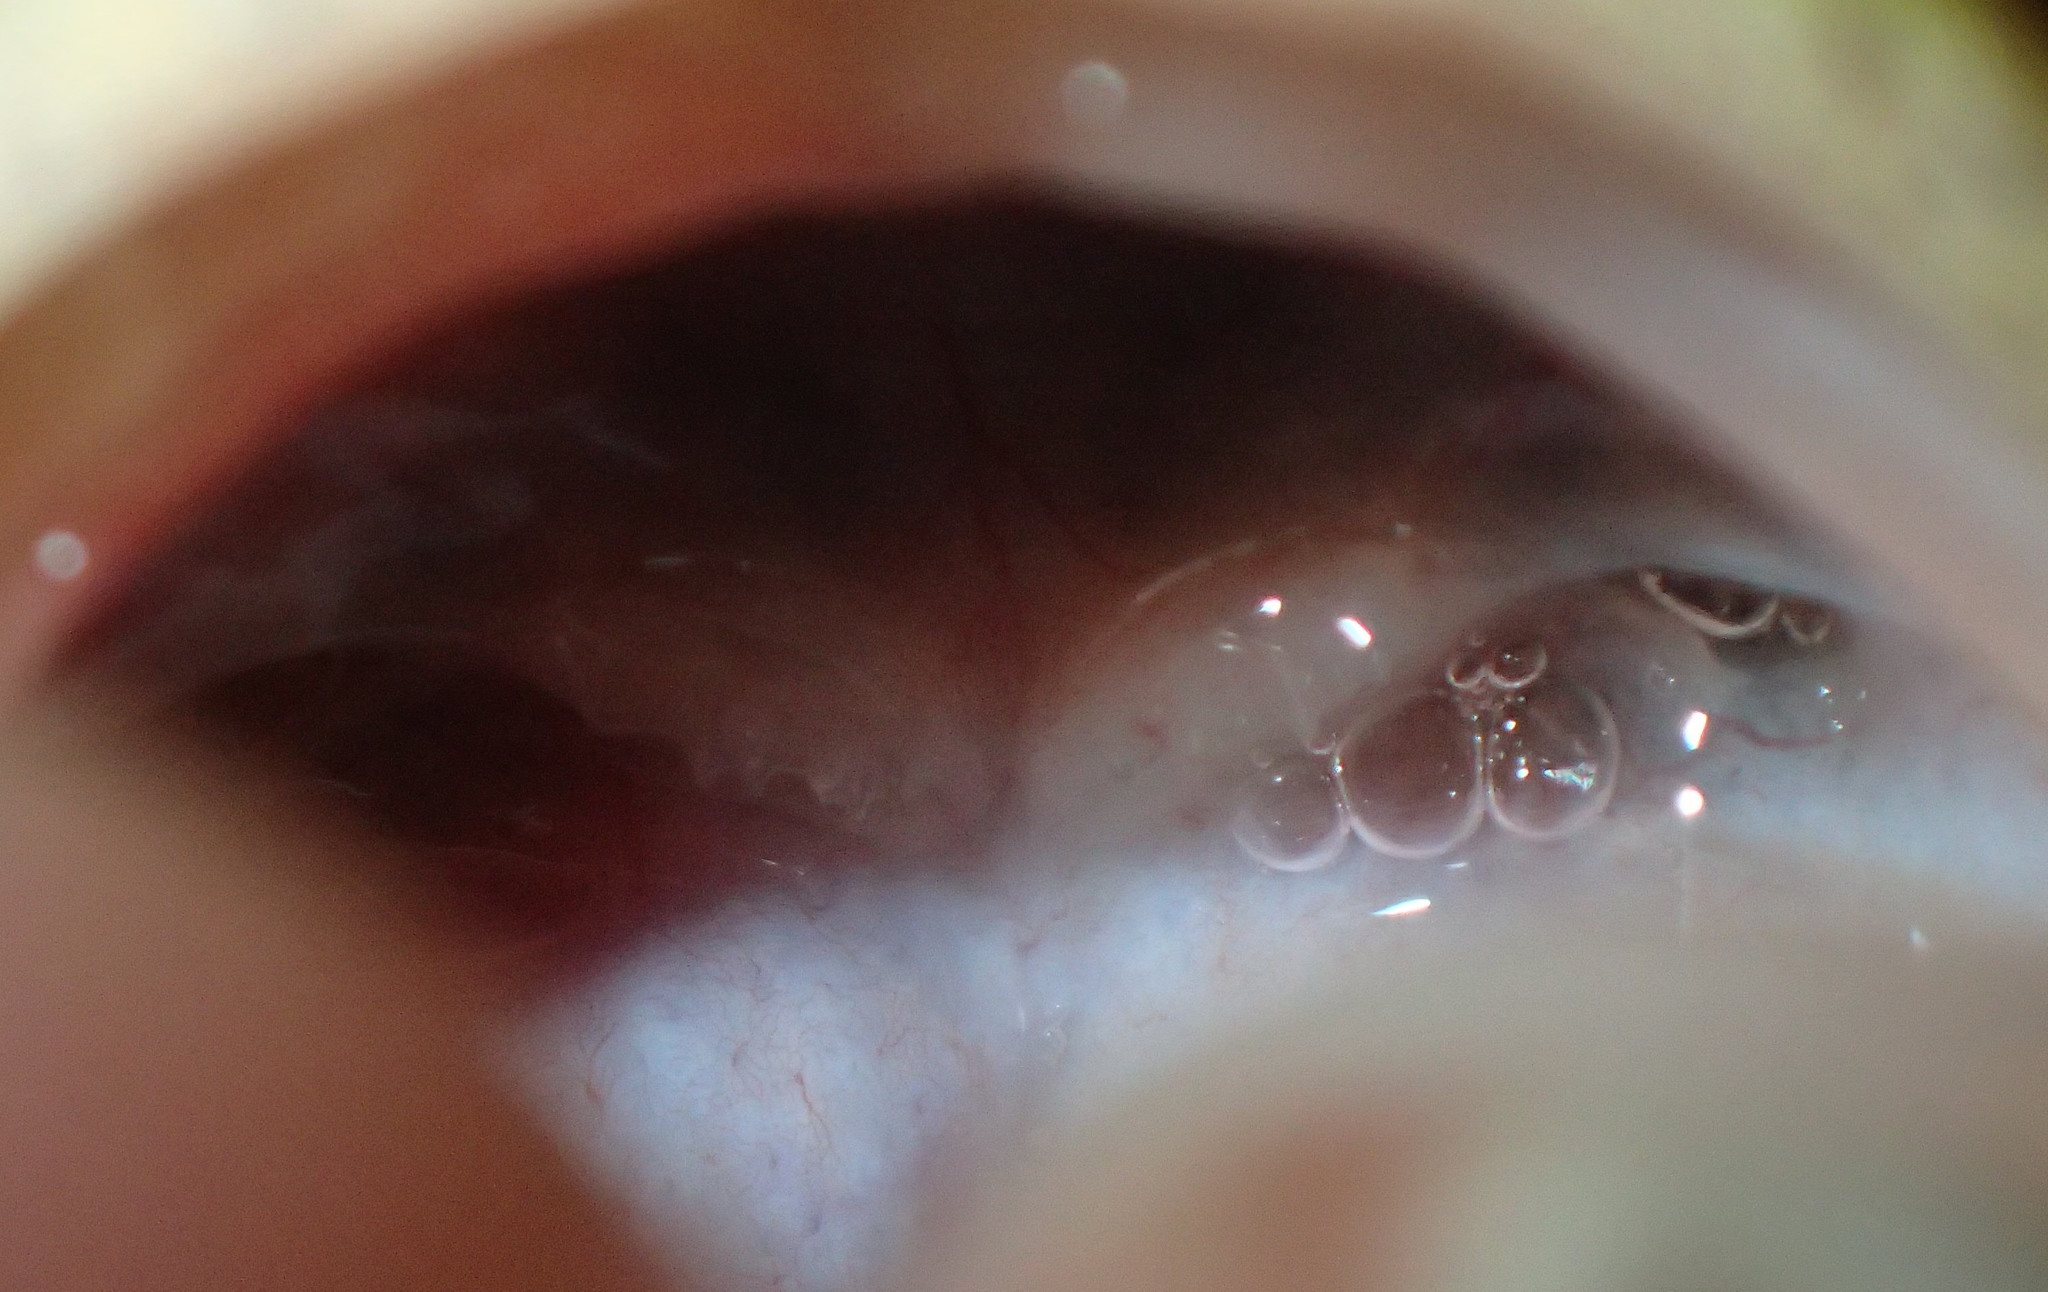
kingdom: Animalia
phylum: Chordata
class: Amphibia
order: Anura
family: Ranidae
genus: Pelophylax
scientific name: Pelophylax
